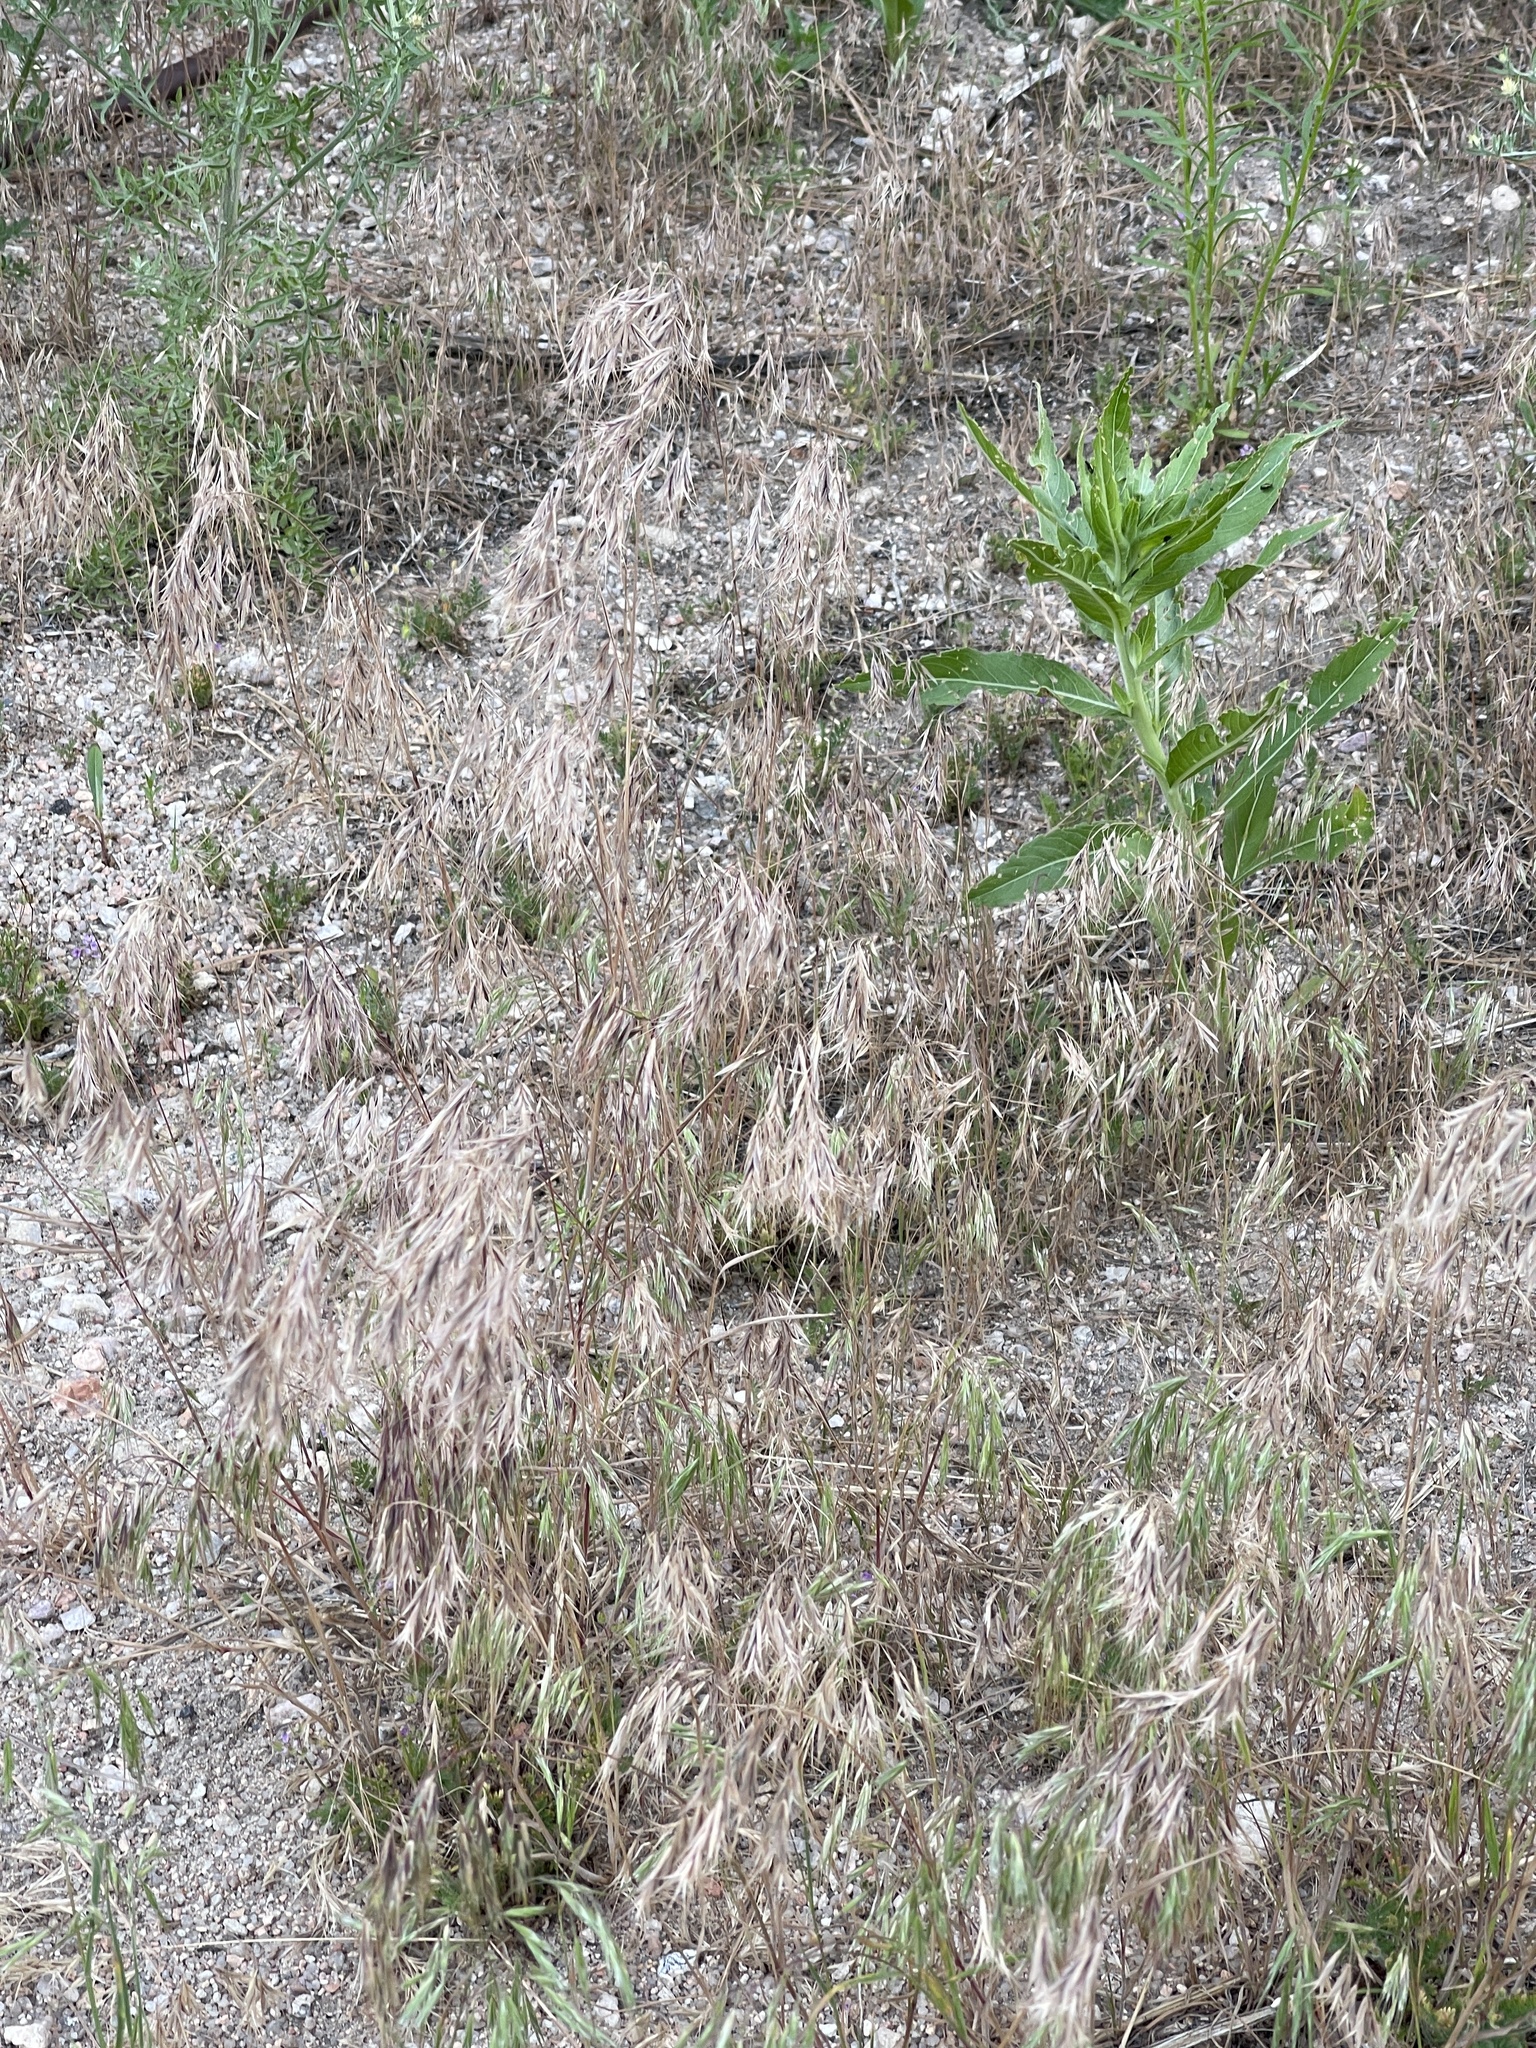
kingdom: Plantae
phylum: Tracheophyta
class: Liliopsida
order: Poales
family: Poaceae
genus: Bromus
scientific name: Bromus inermis
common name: Smooth brome
